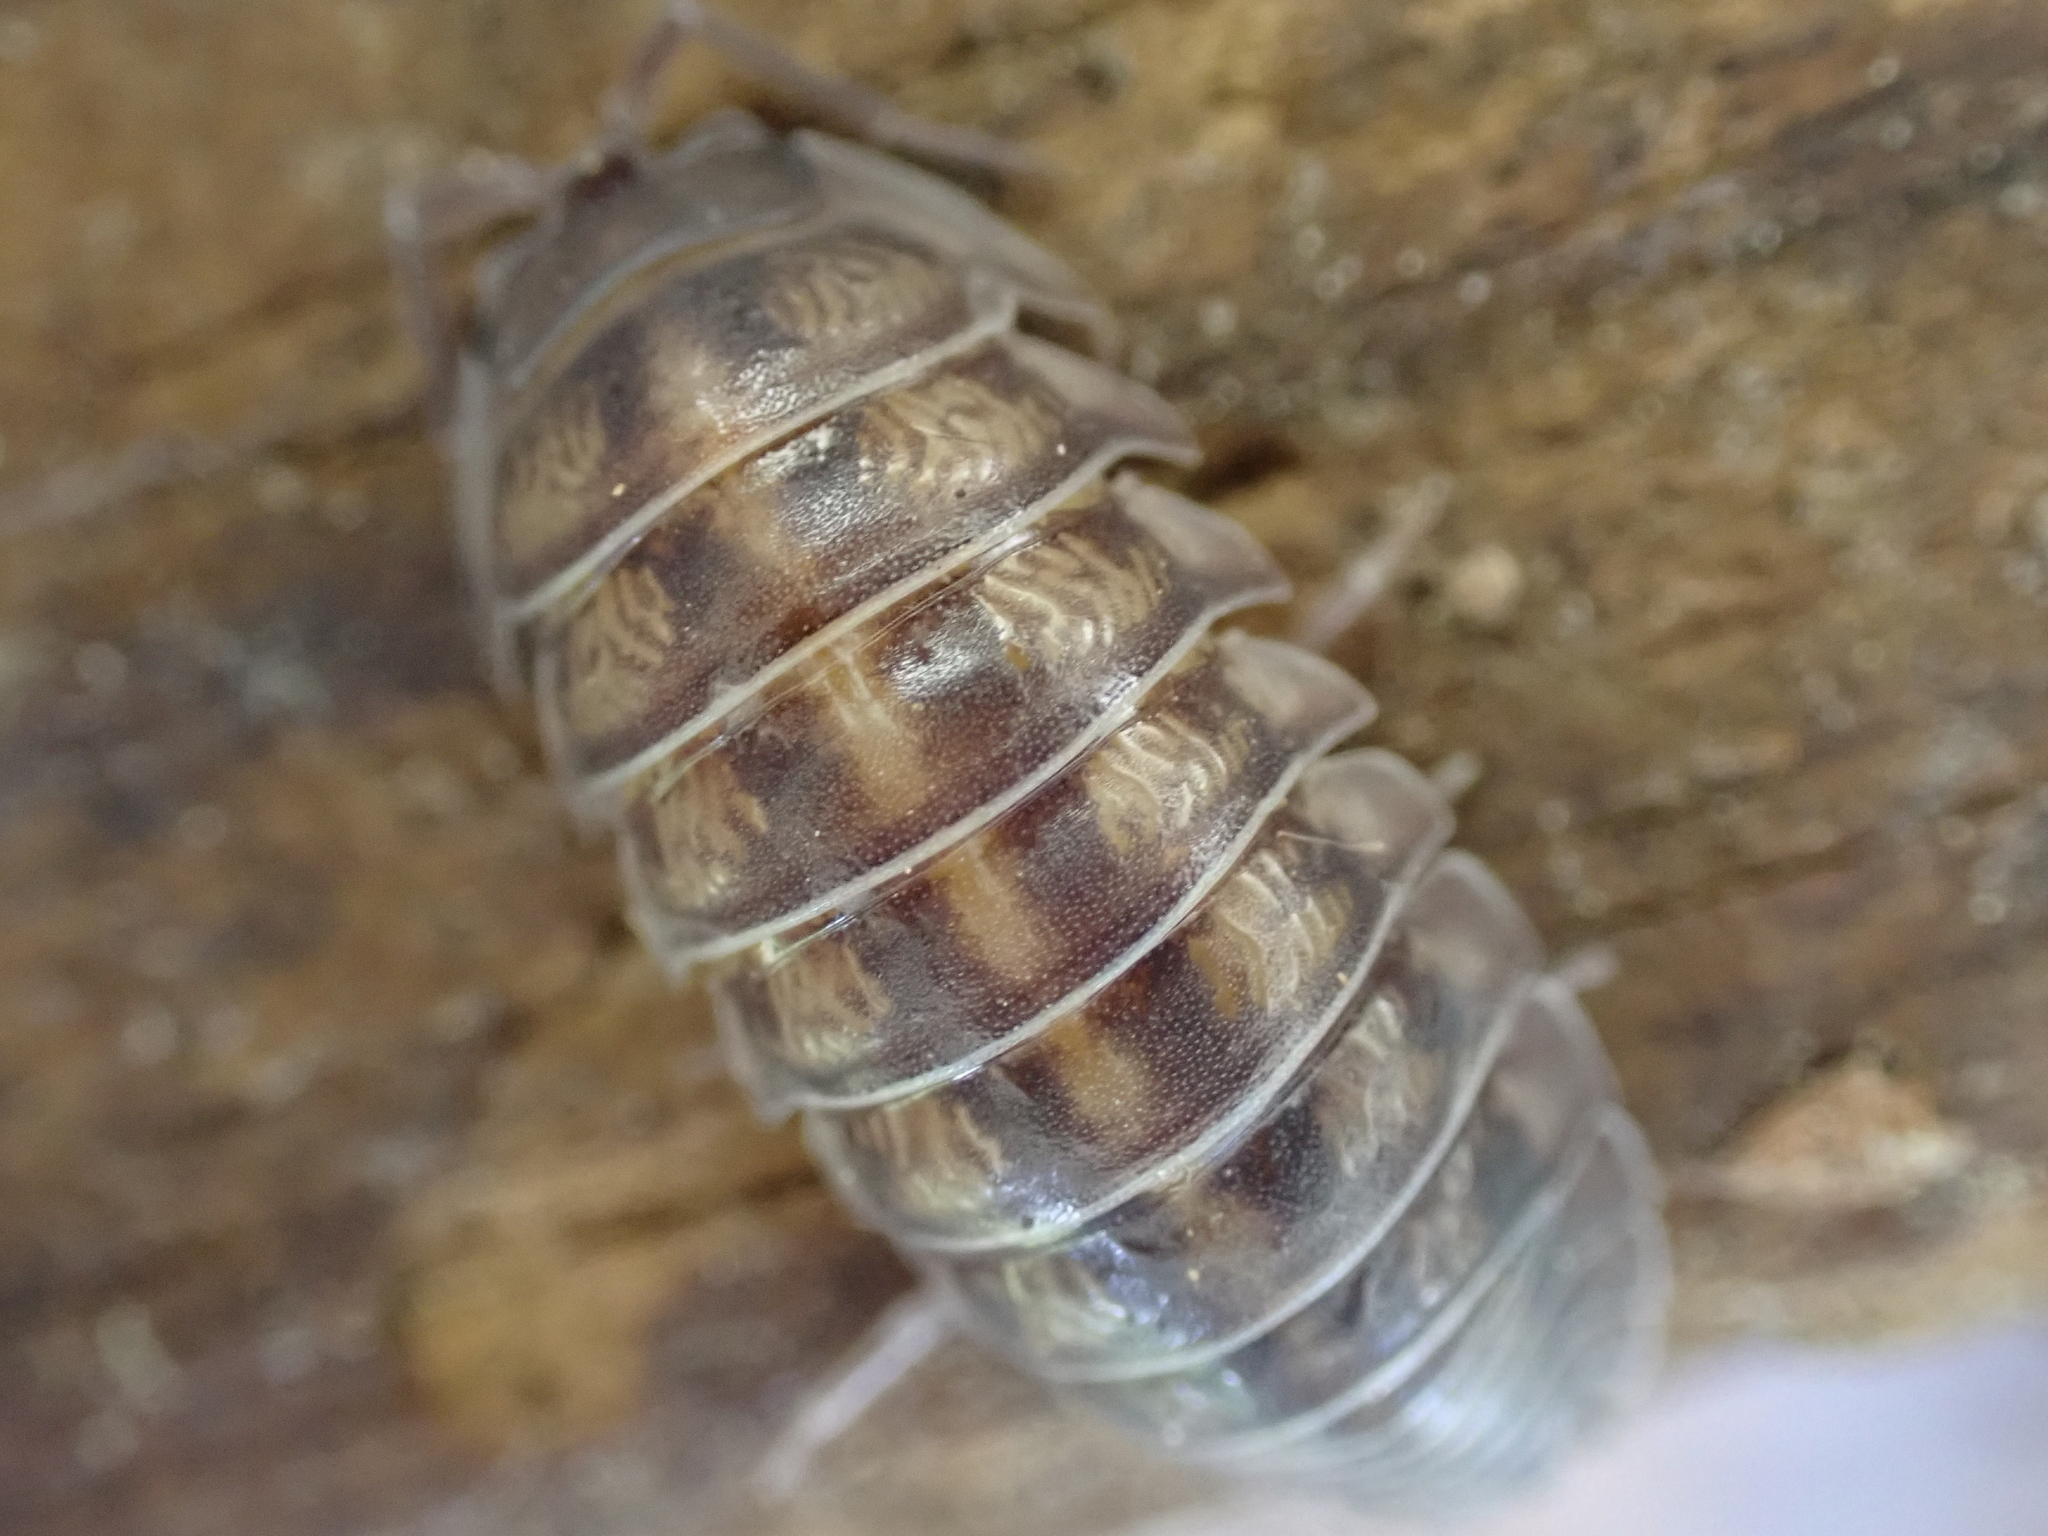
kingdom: Animalia
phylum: Arthropoda
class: Malacostraca
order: Isopoda
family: Armadillidiidae
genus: Armadillidium
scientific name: Armadillidium nasatum
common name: Isopod
